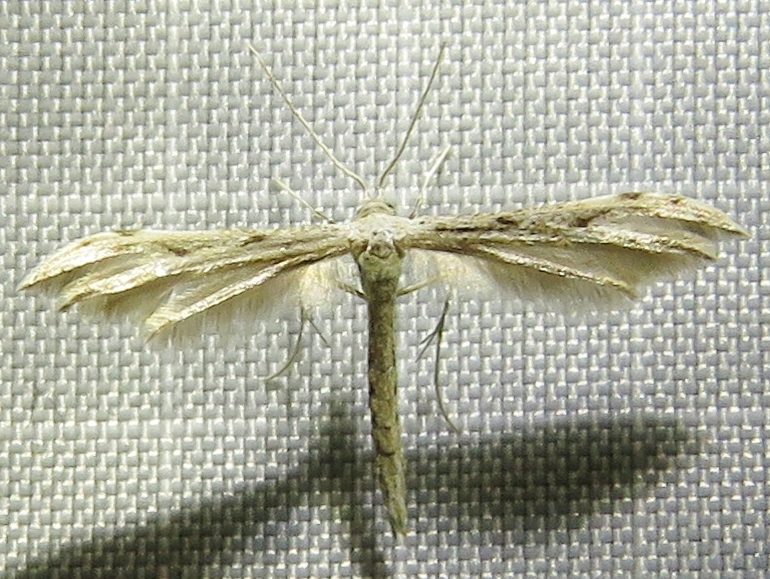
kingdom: Animalia
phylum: Arthropoda
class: Insecta
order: Lepidoptera
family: Pterophoridae
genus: Pselnophorus
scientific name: Pselnophorus belfragei
